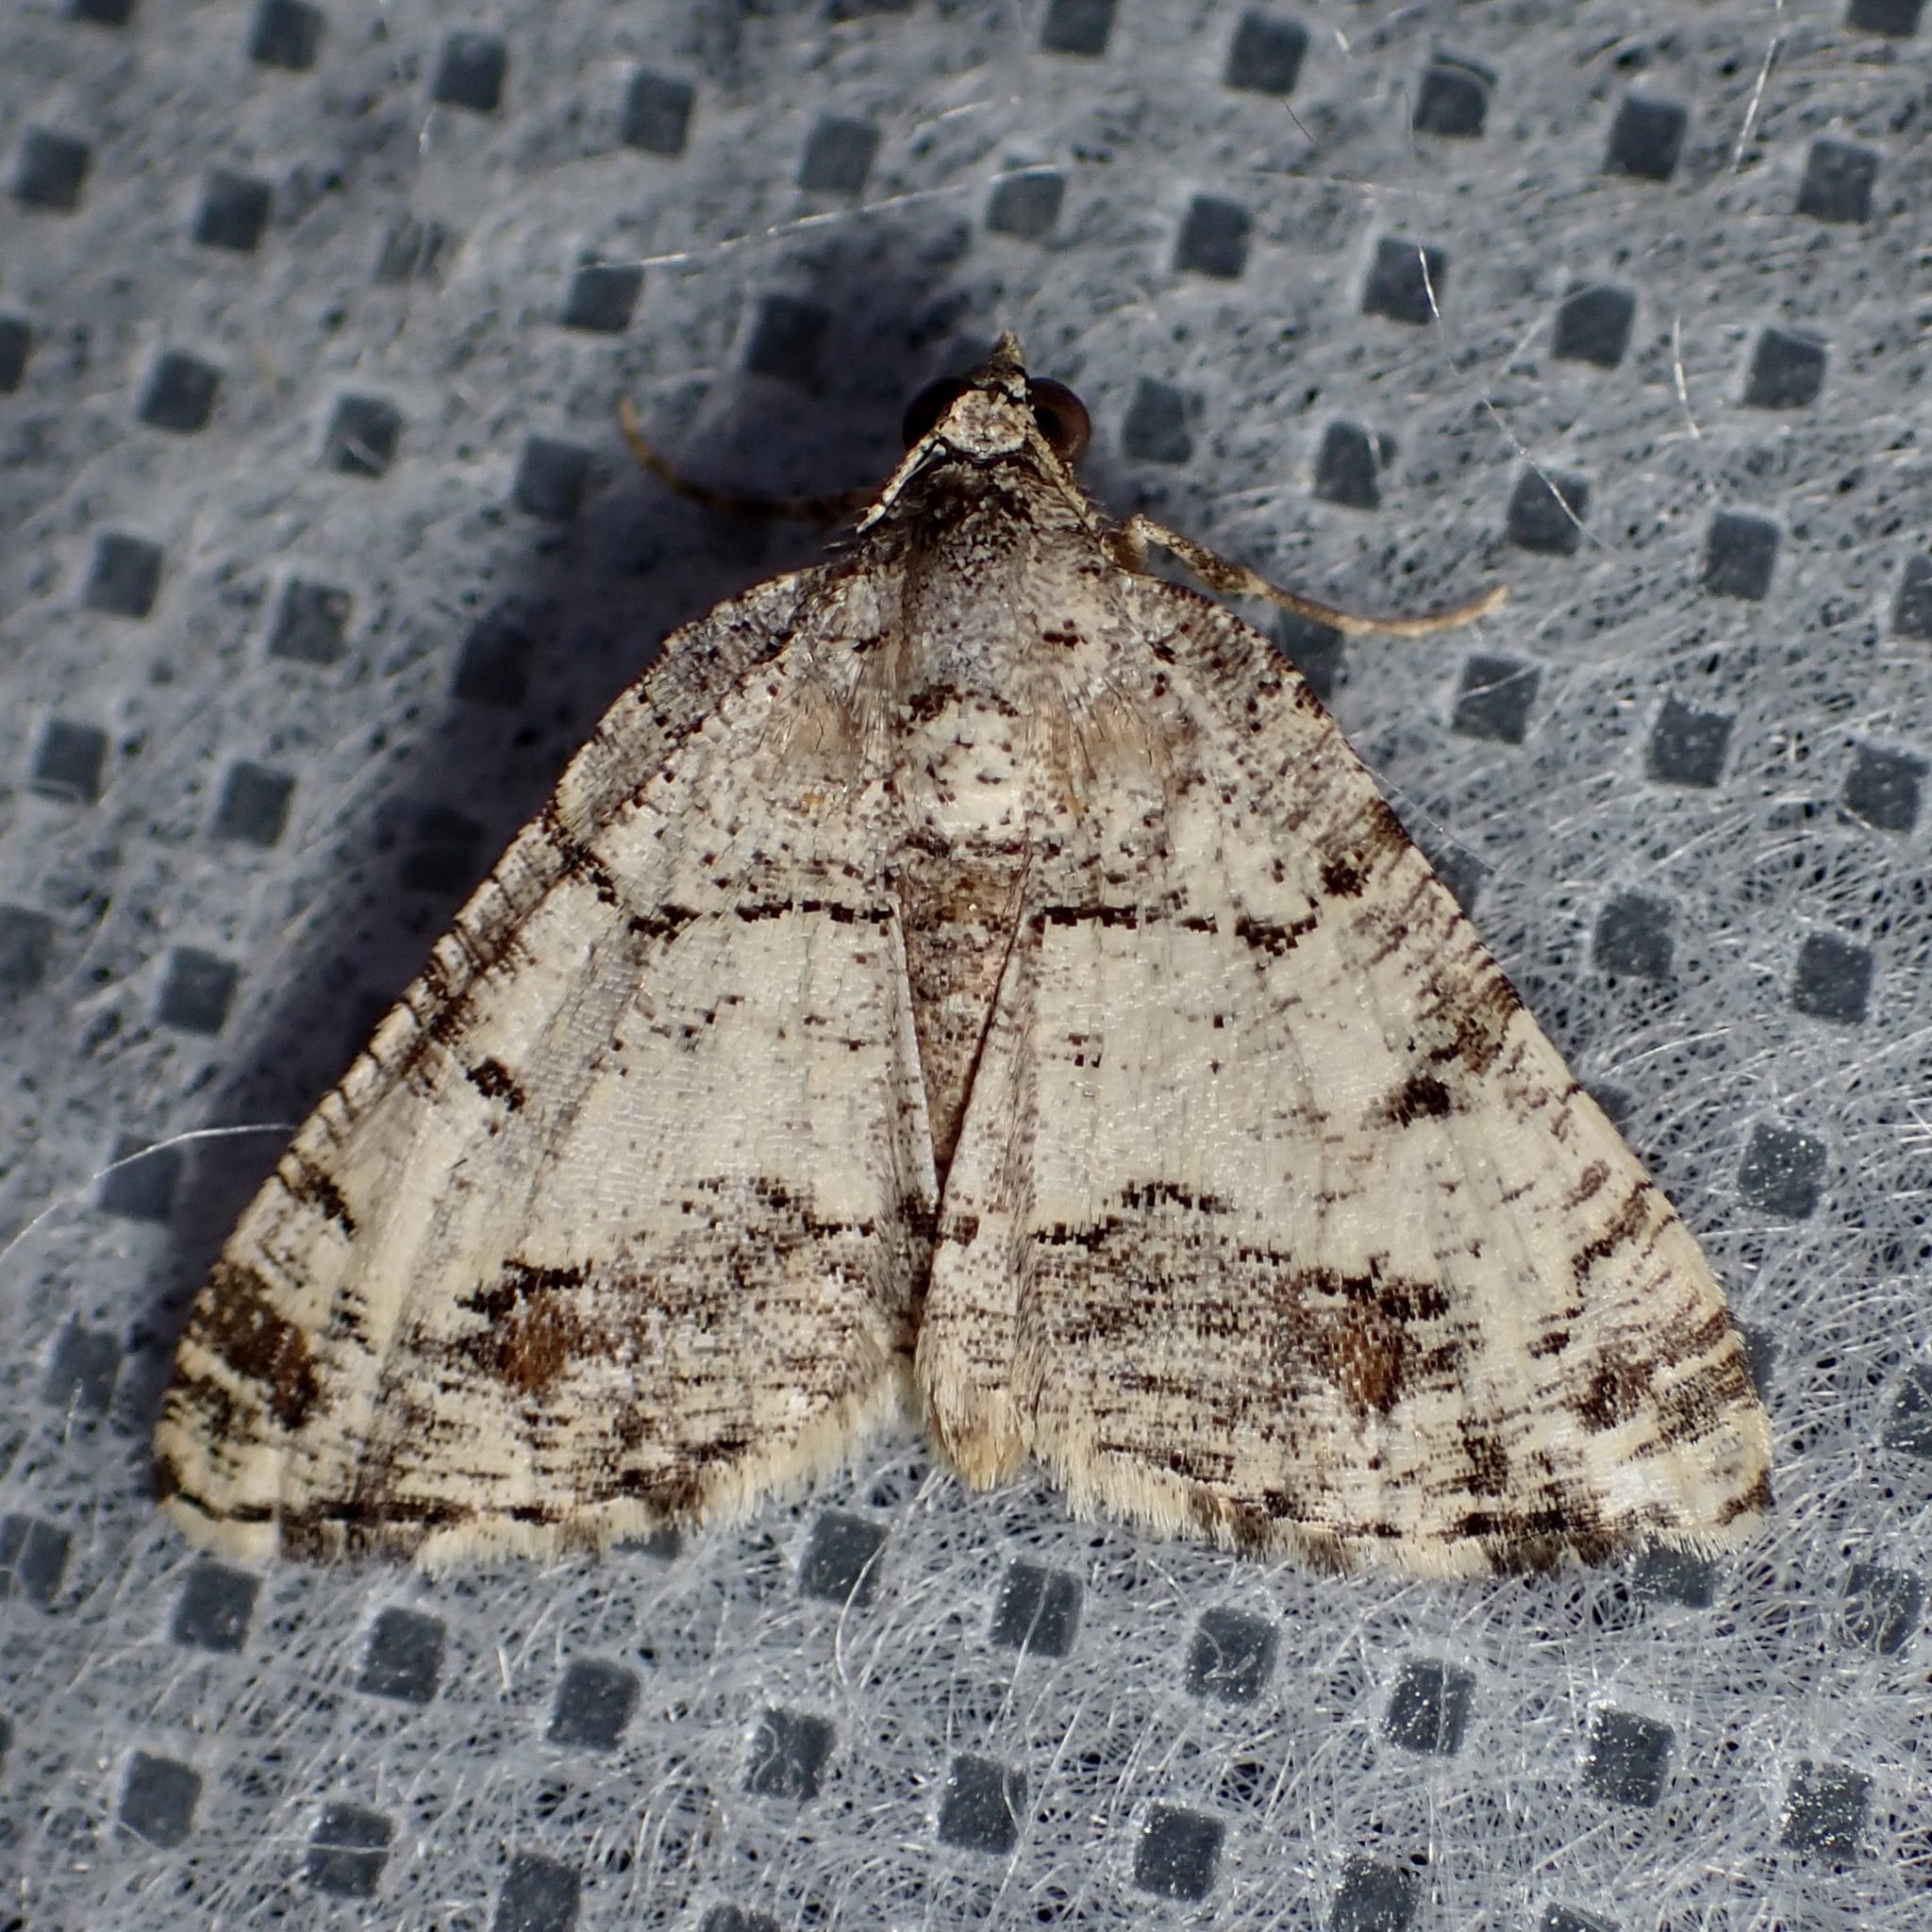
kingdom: Animalia
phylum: Arthropoda
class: Insecta
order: Lepidoptera
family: Geometridae
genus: Macaria
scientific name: Macaria deceptrix
